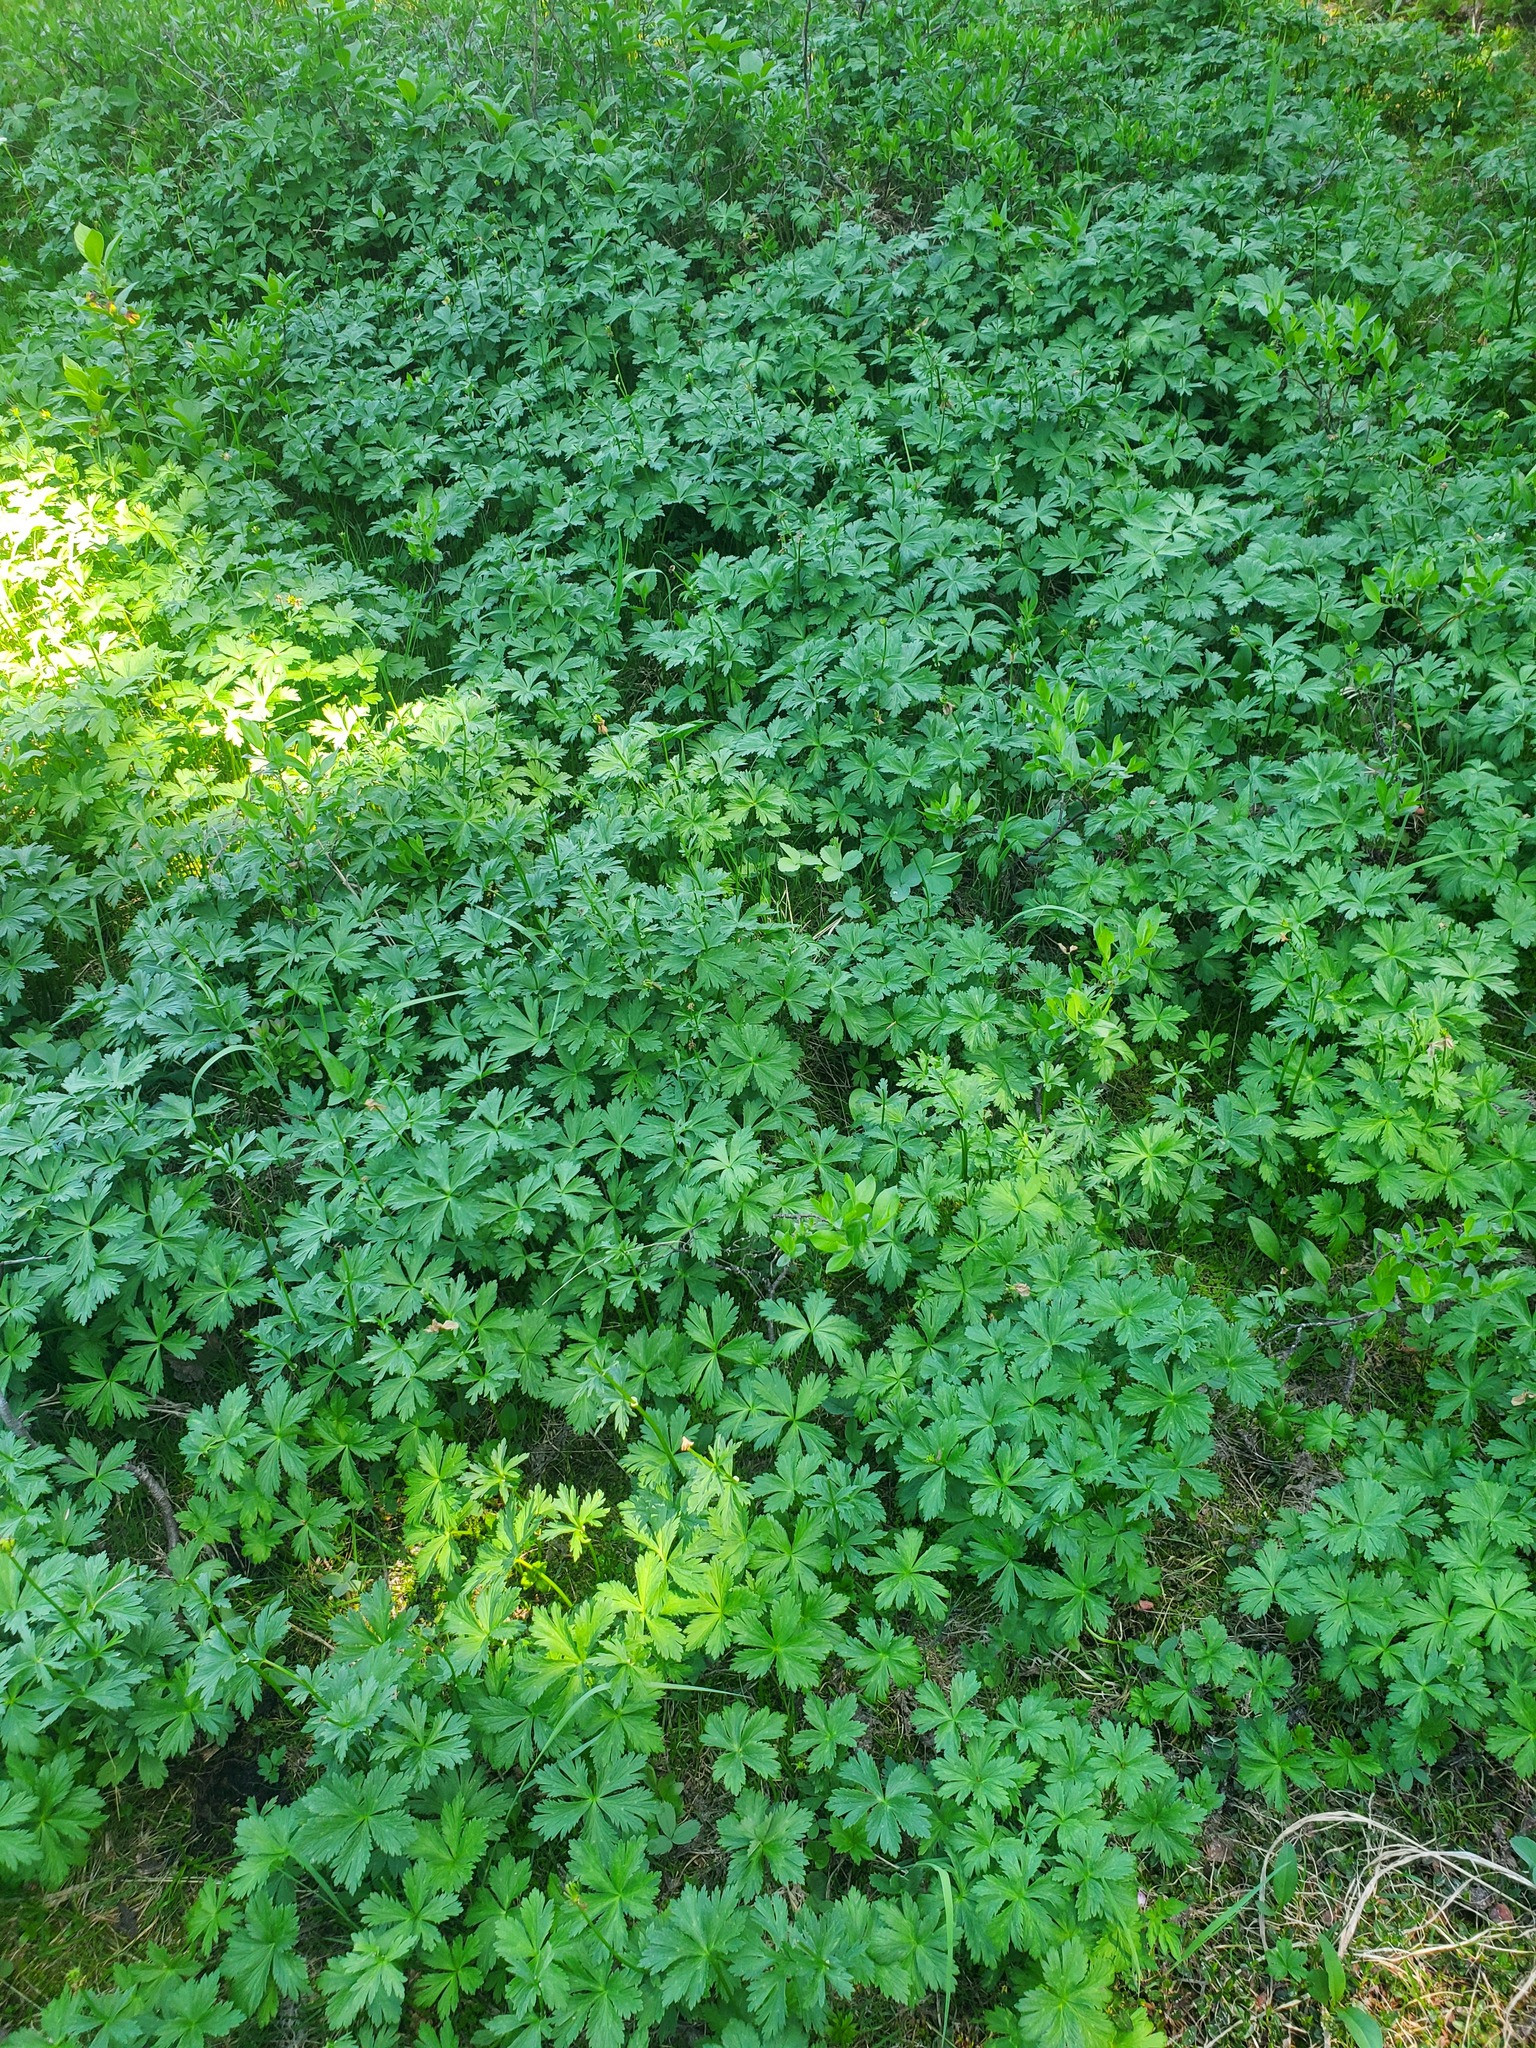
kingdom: Plantae
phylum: Tracheophyta
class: Magnoliopsida
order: Ranunculales
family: Ranunculaceae
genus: Trollius
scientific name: Trollius laxus
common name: American globeflower
